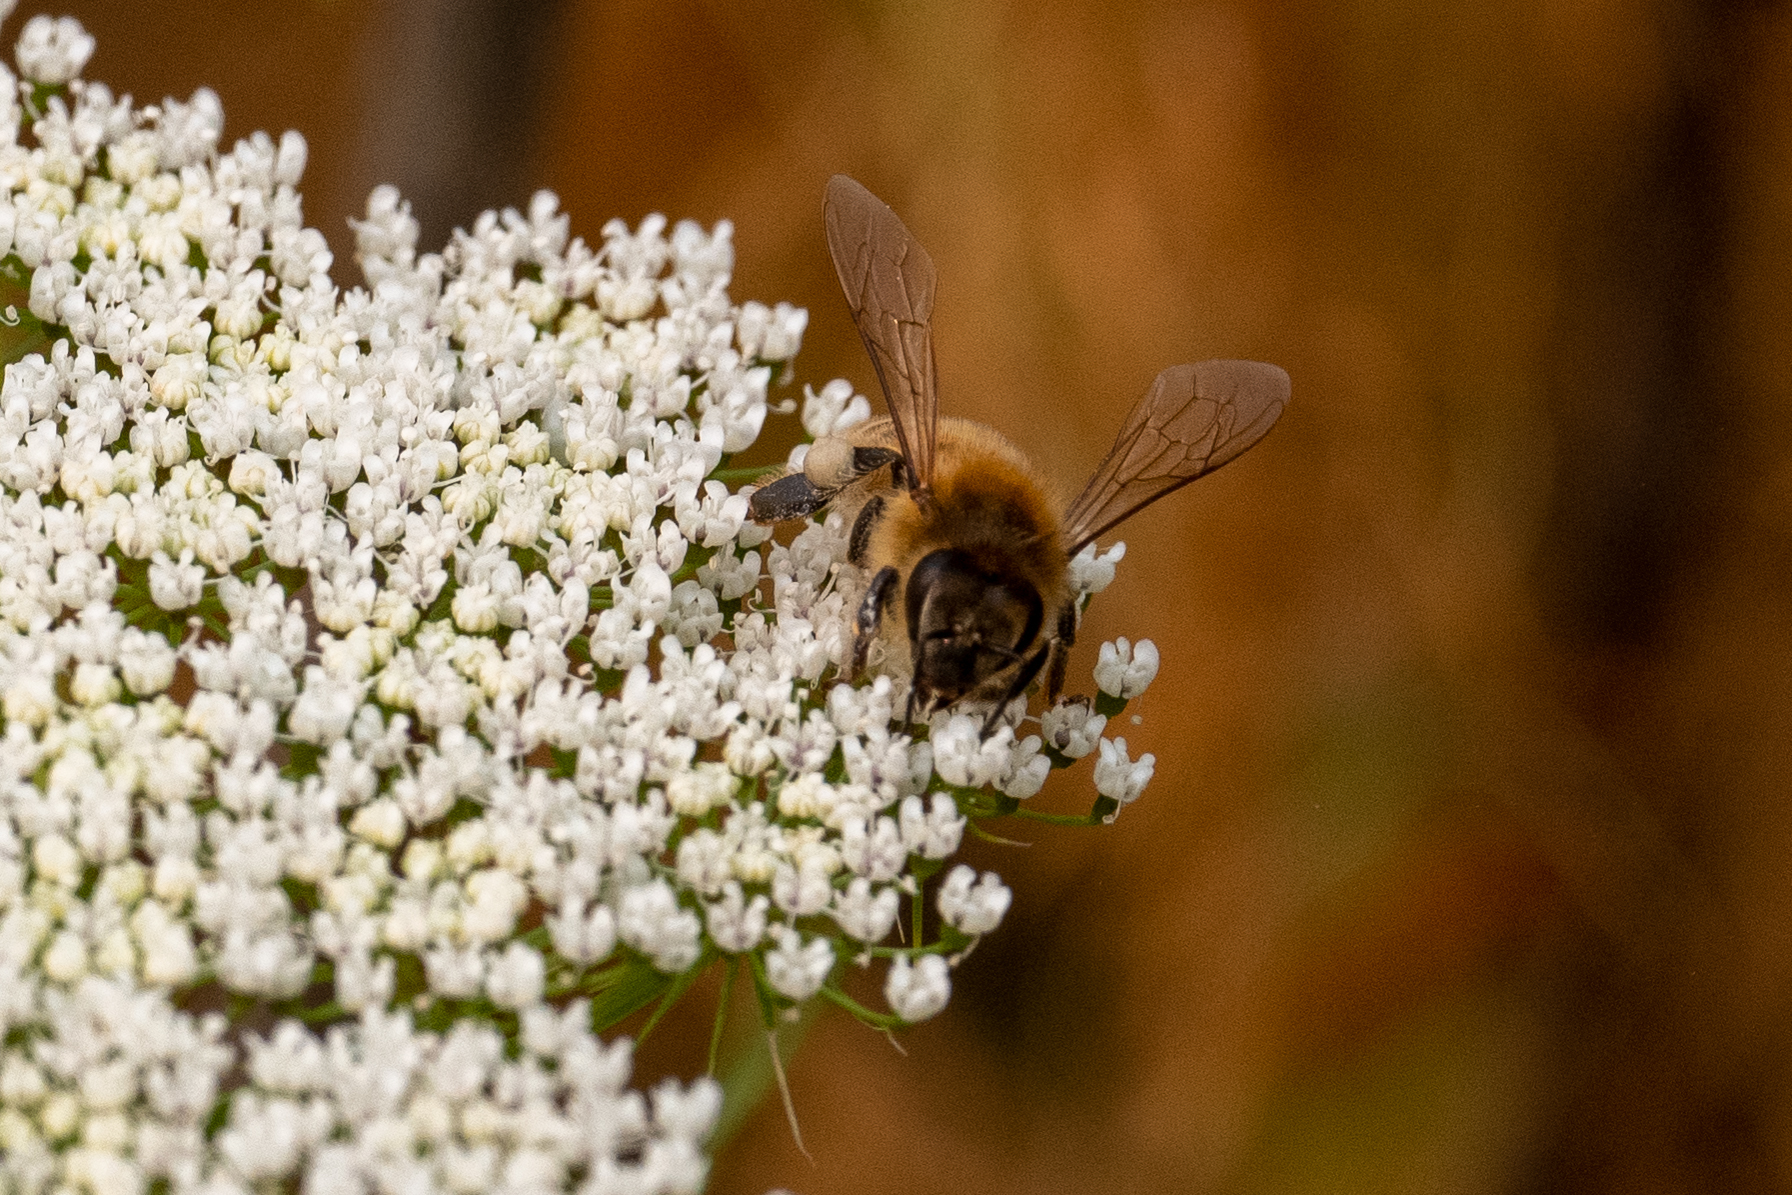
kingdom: Animalia
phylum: Arthropoda
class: Insecta
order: Hymenoptera
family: Apidae
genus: Apis
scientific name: Apis mellifera
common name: Honey bee
